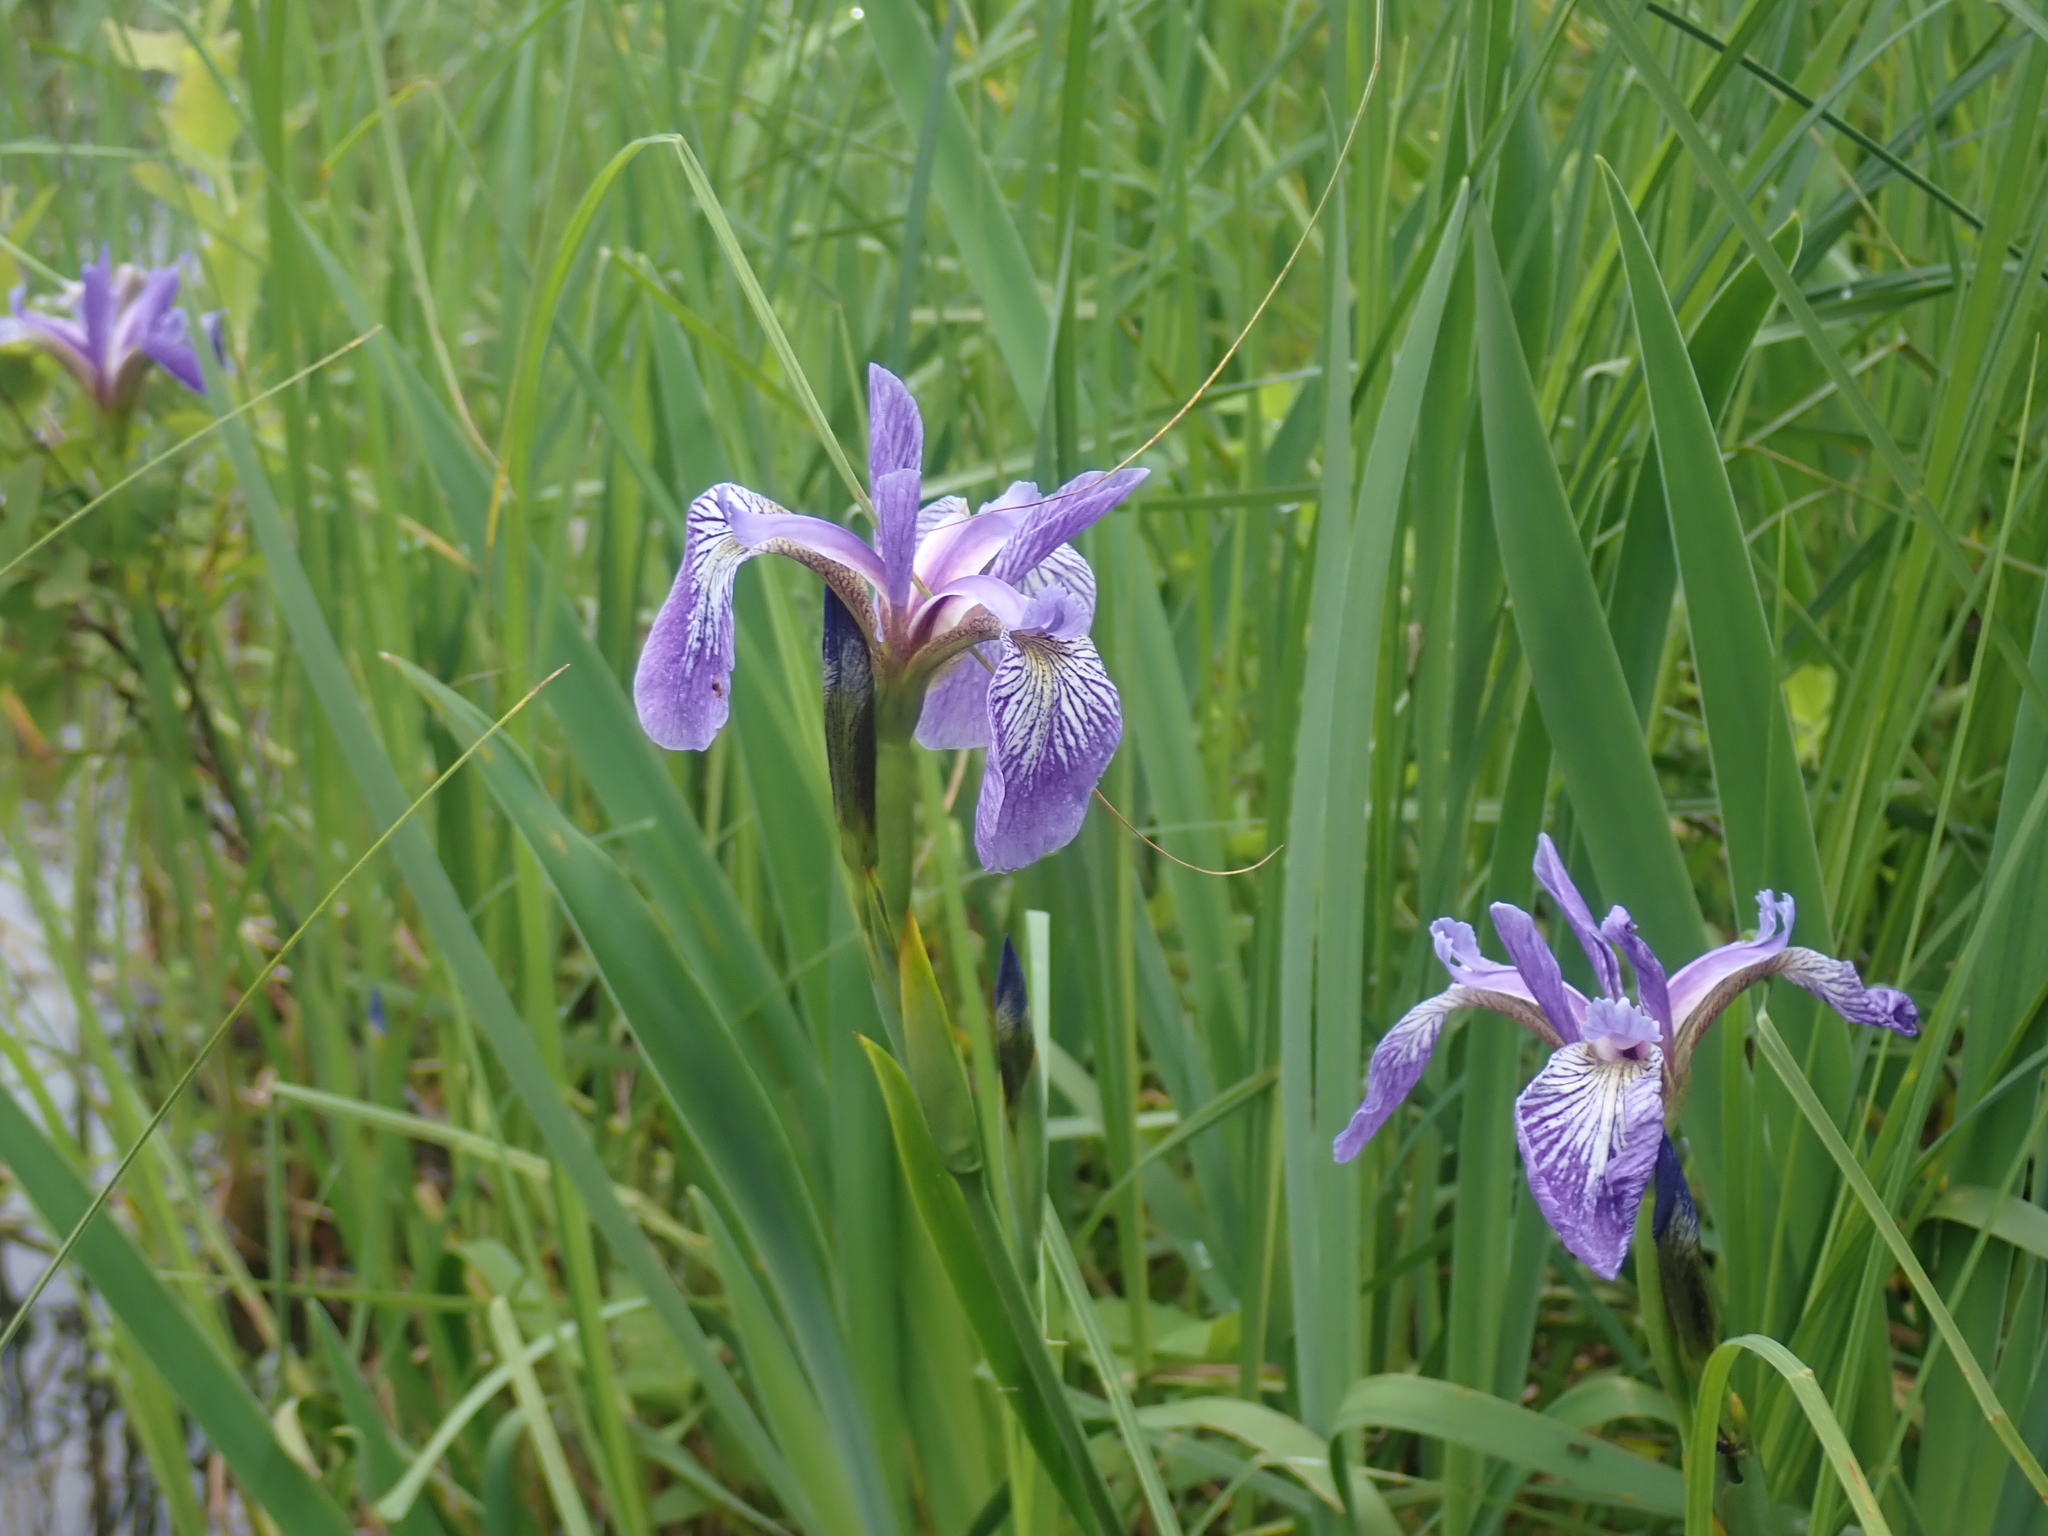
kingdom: Plantae
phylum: Tracheophyta
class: Liliopsida
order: Asparagales
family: Iridaceae
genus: Iris
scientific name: Iris versicolor
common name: Purple iris
